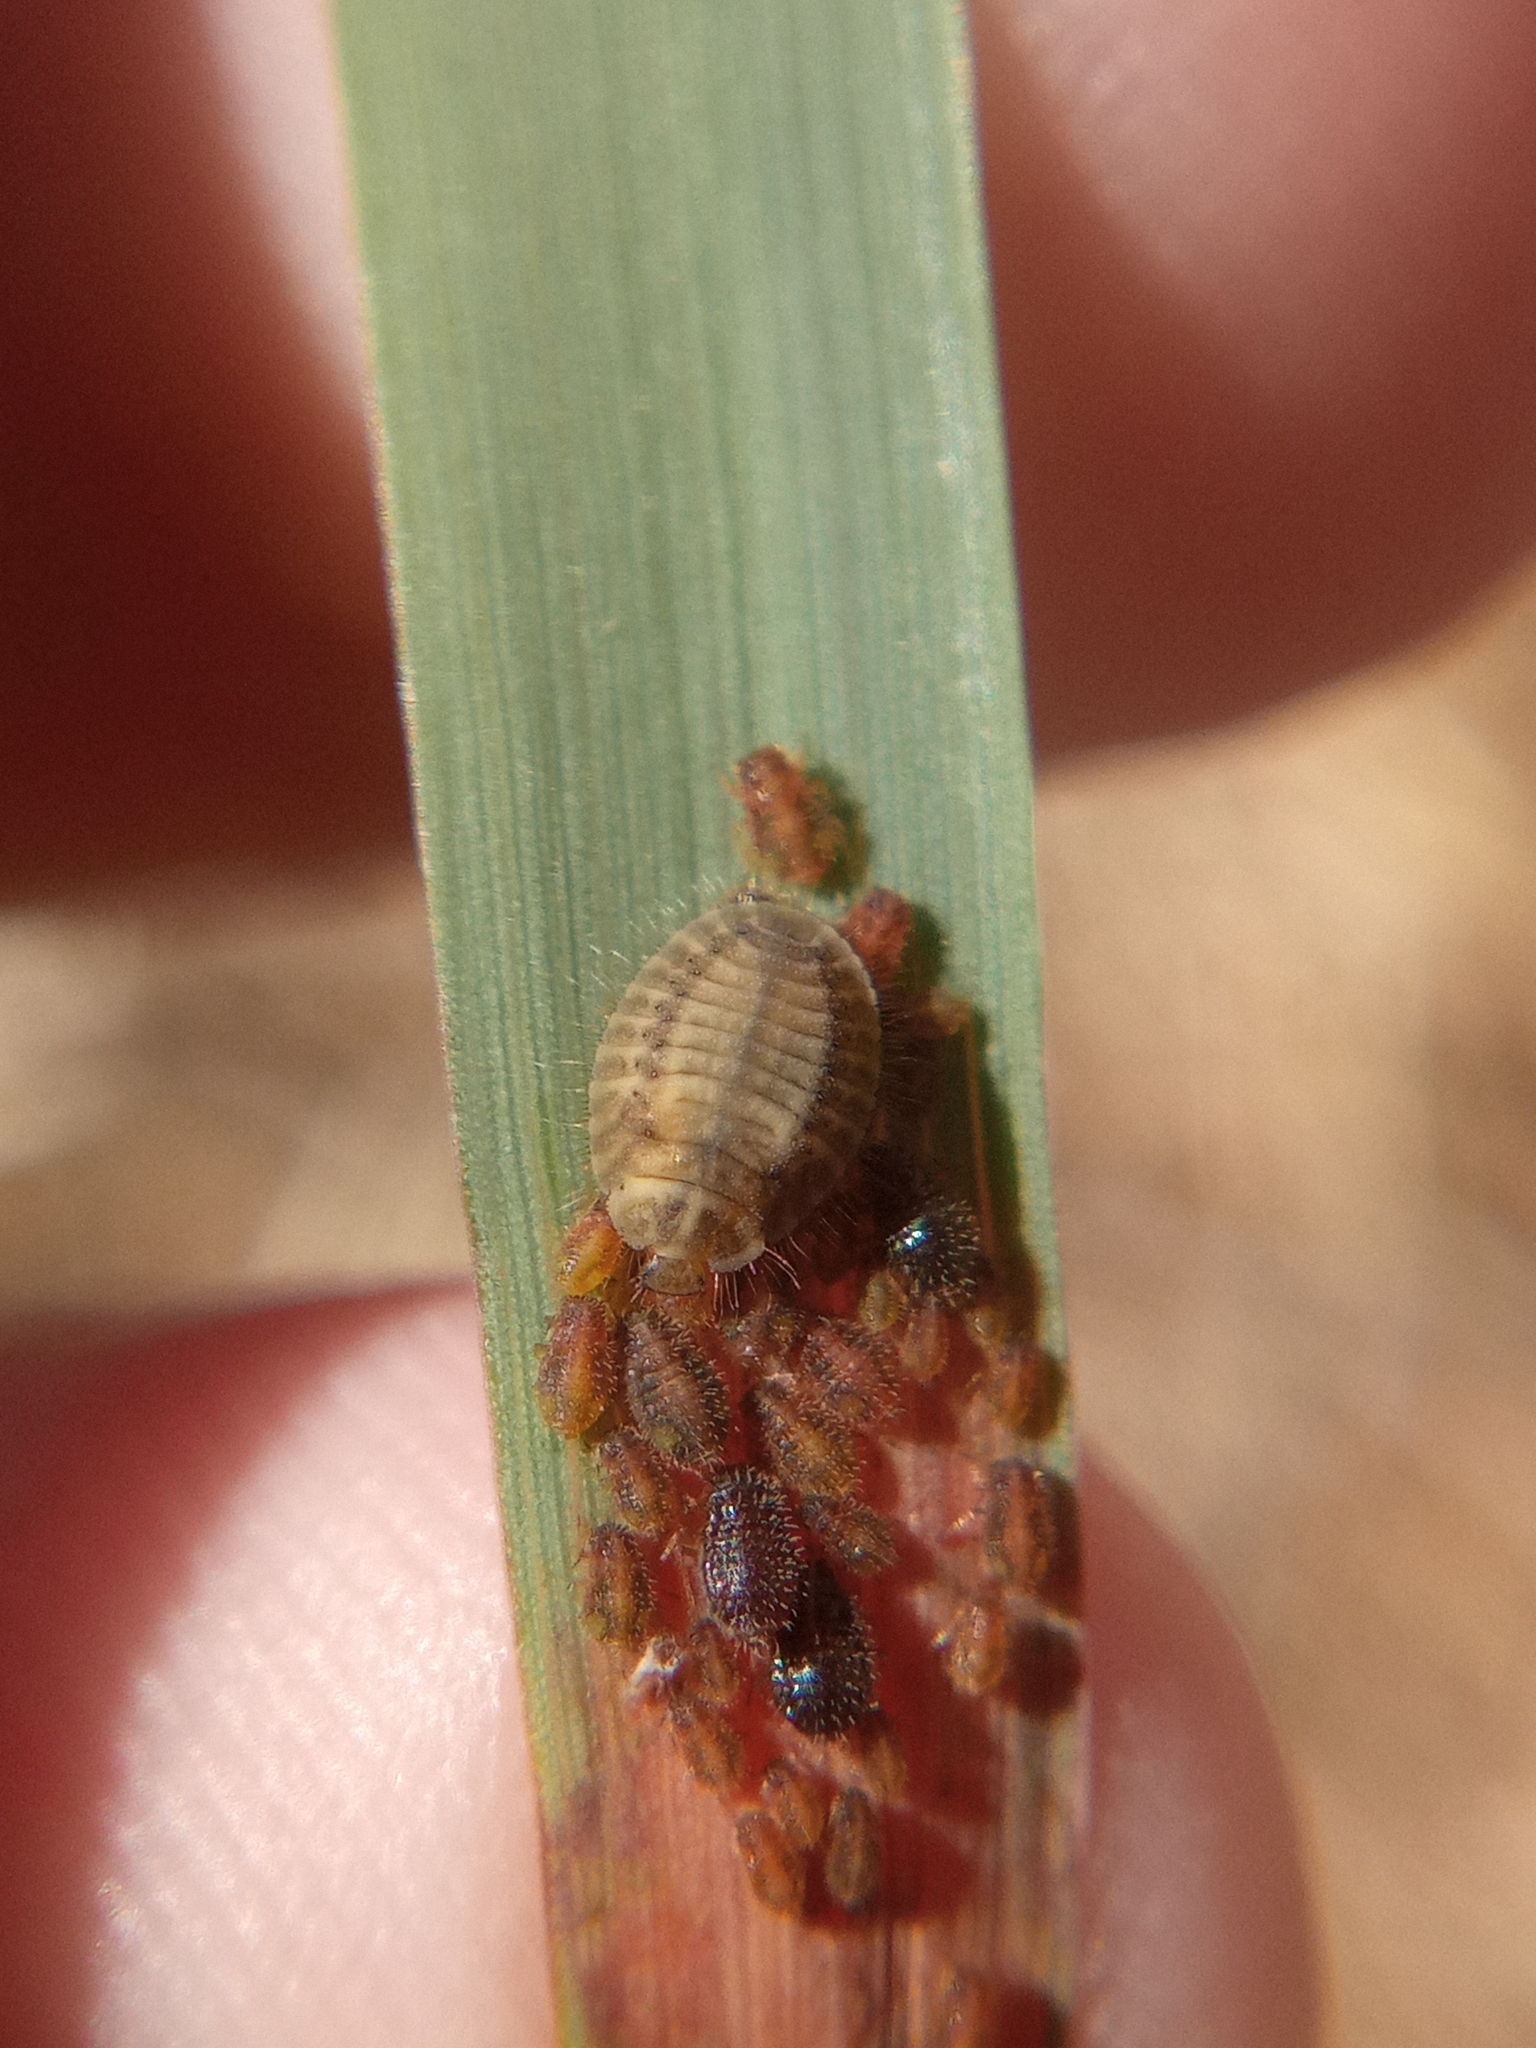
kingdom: Animalia
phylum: Arthropoda
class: Insecta
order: Coleoptera
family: Coccinellidae
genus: Platynaspis
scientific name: Platynaspis luteorubra
